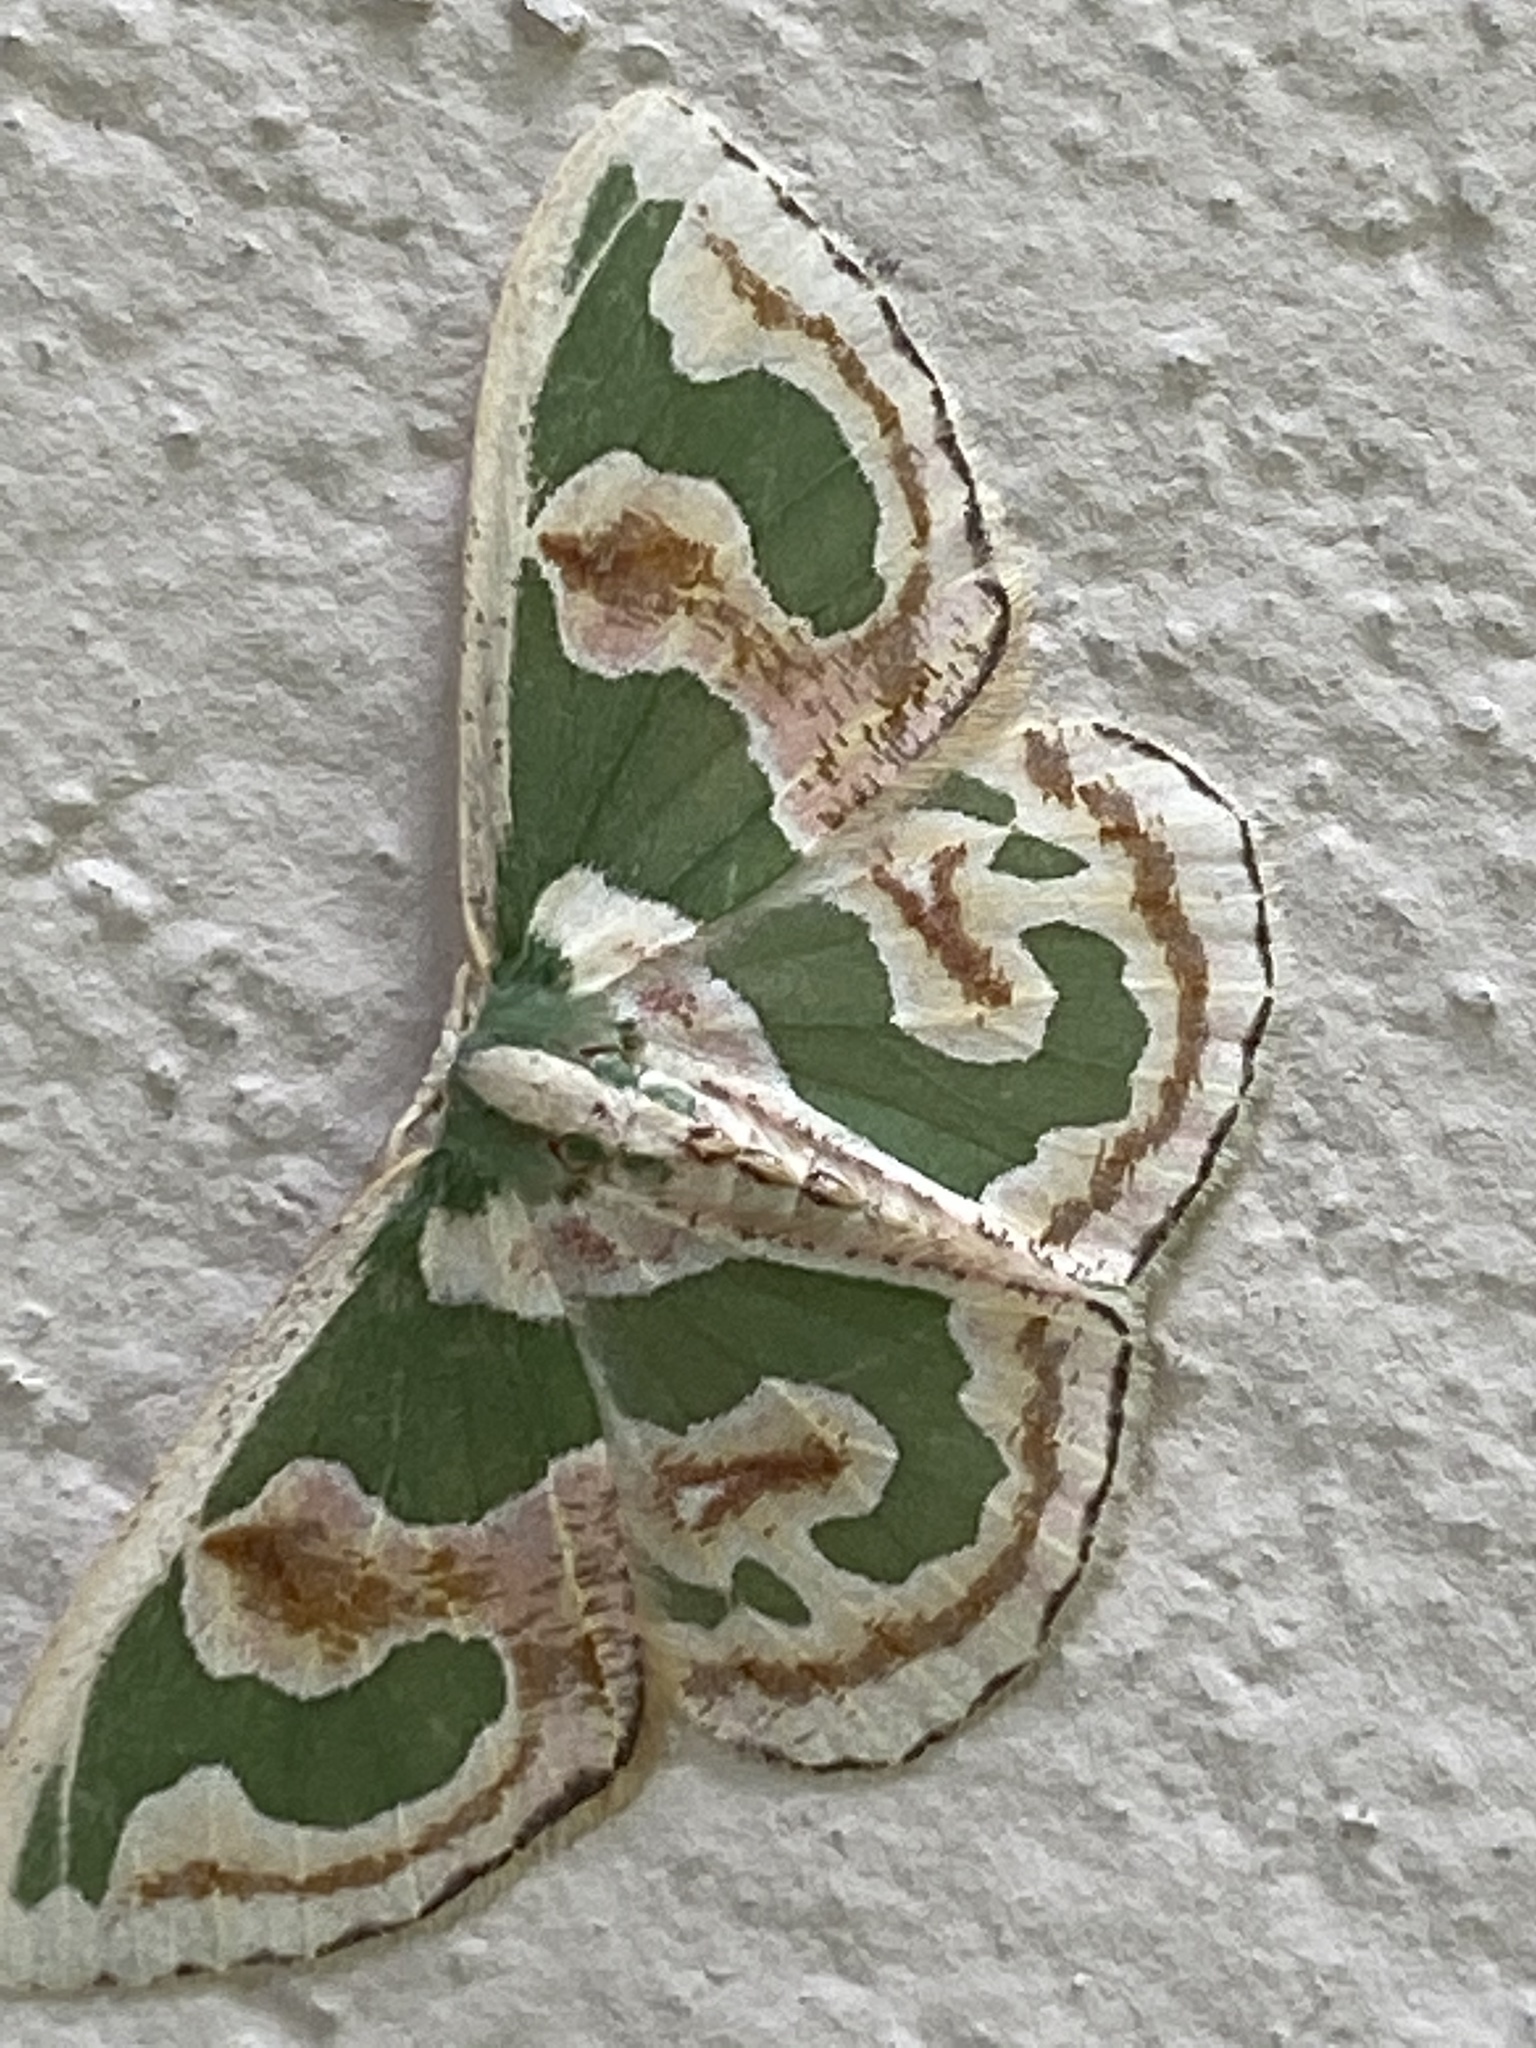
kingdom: Animalia
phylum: Arthropoda
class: Insecta
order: Lepidoptera
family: Geometridae
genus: Oospila
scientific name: Oospila includaria
